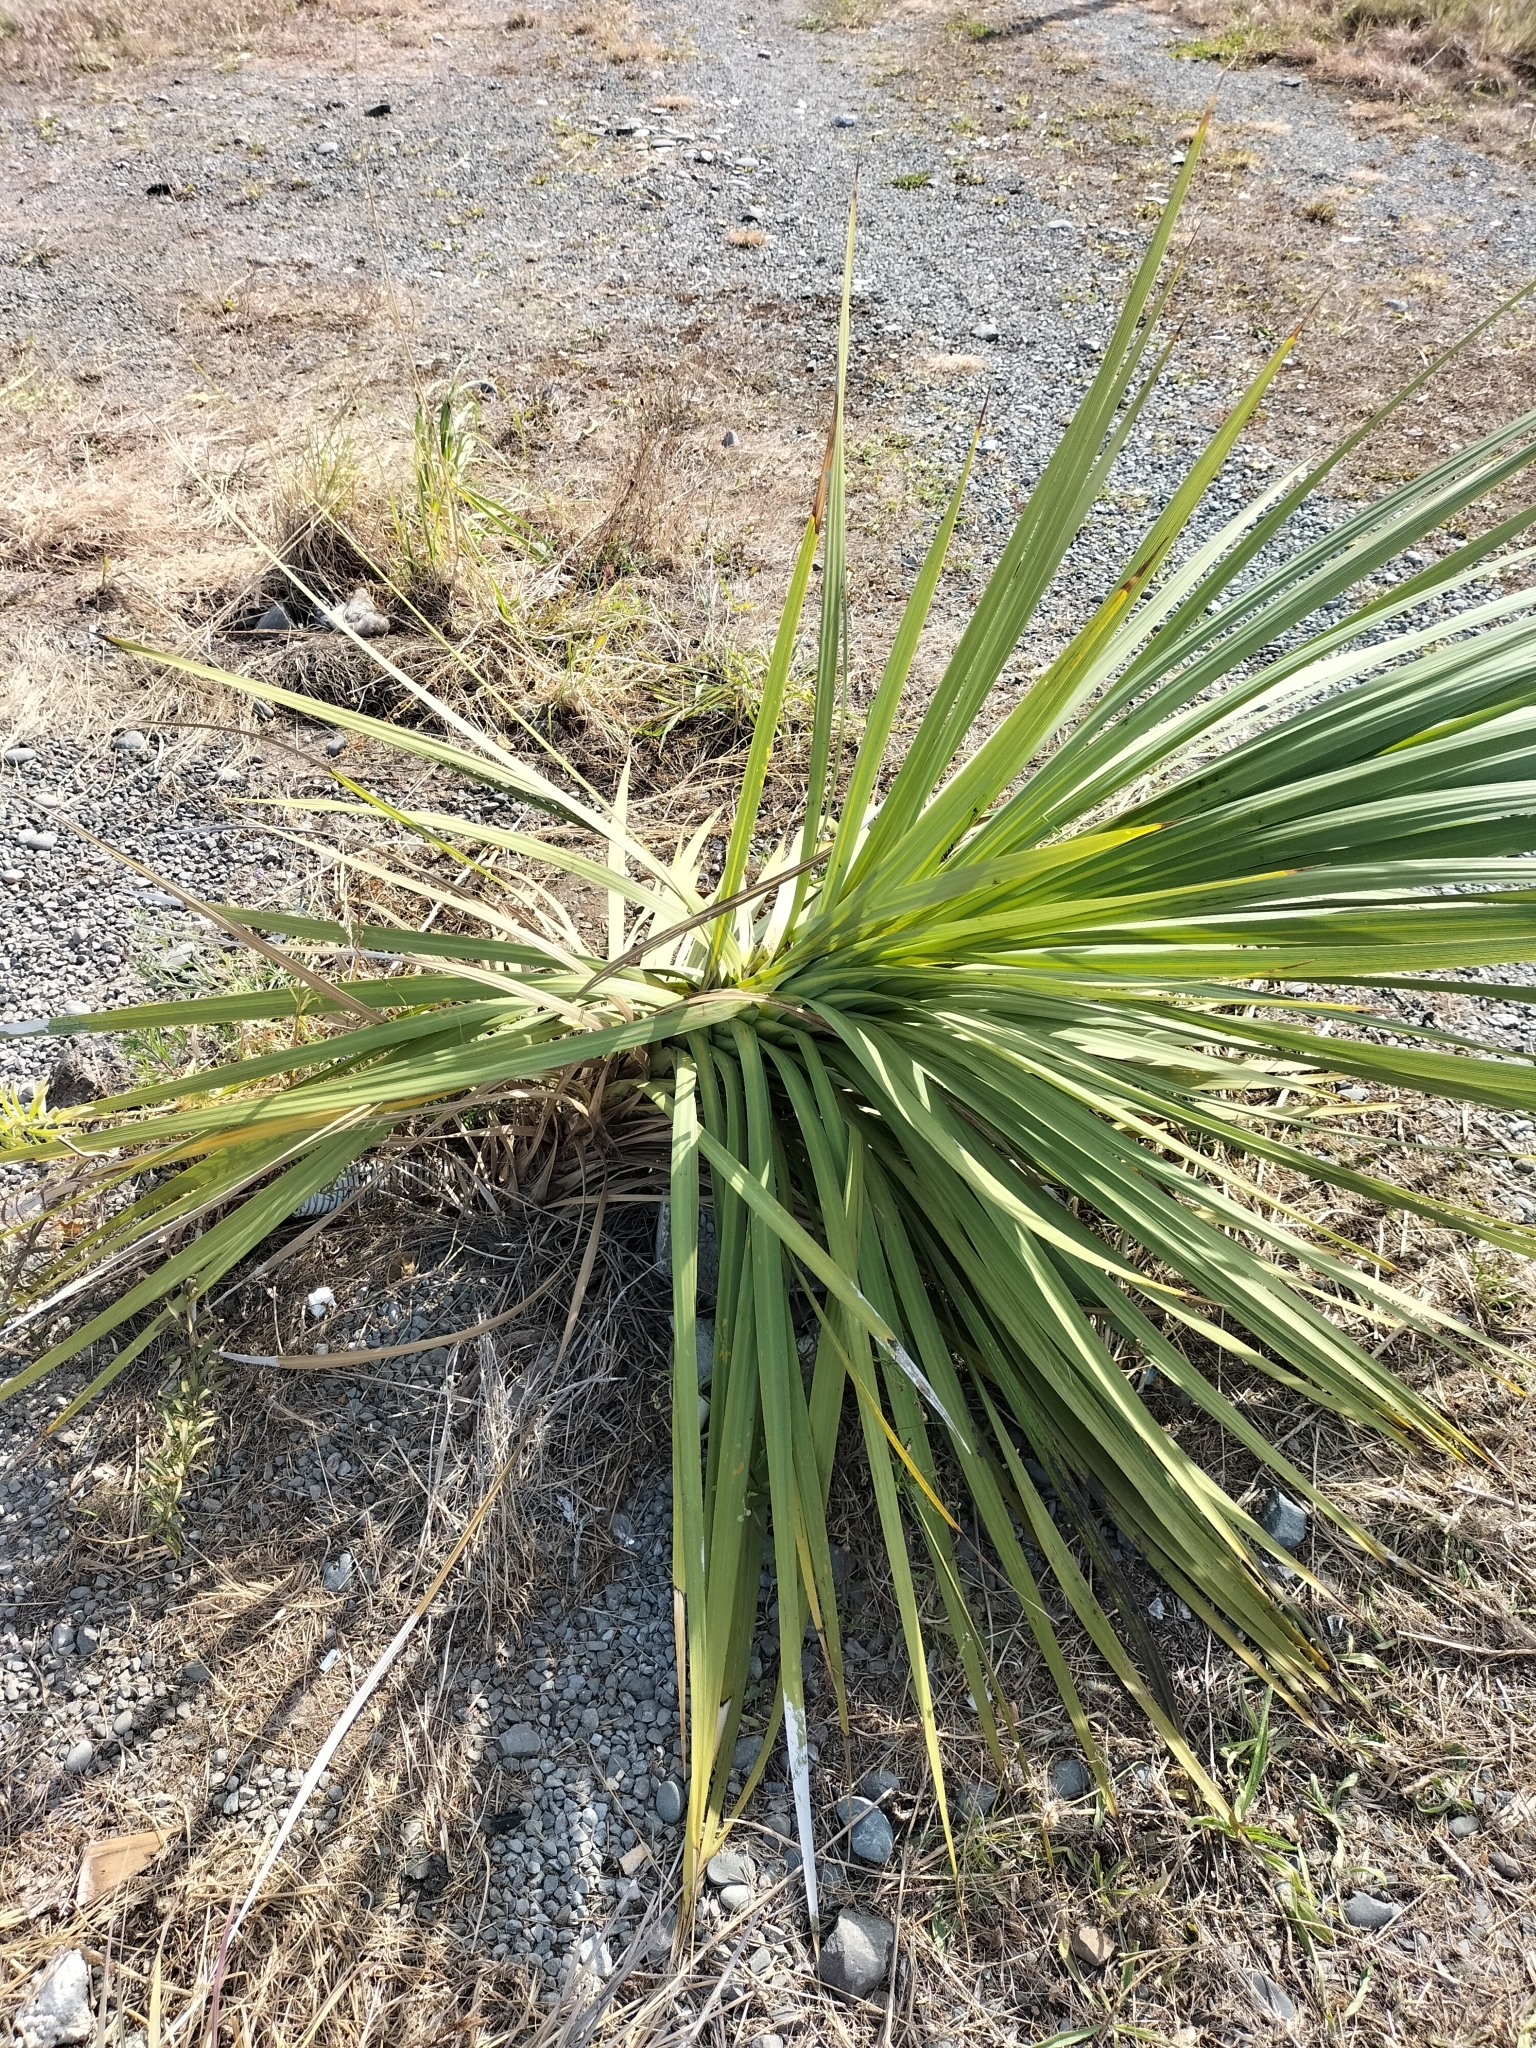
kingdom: Plantae
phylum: Tracheophyta
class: Liliopsida
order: Asparagales
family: Asparagaceae
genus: Cordyline
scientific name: Cordyline australis
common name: Cabbage-palm
